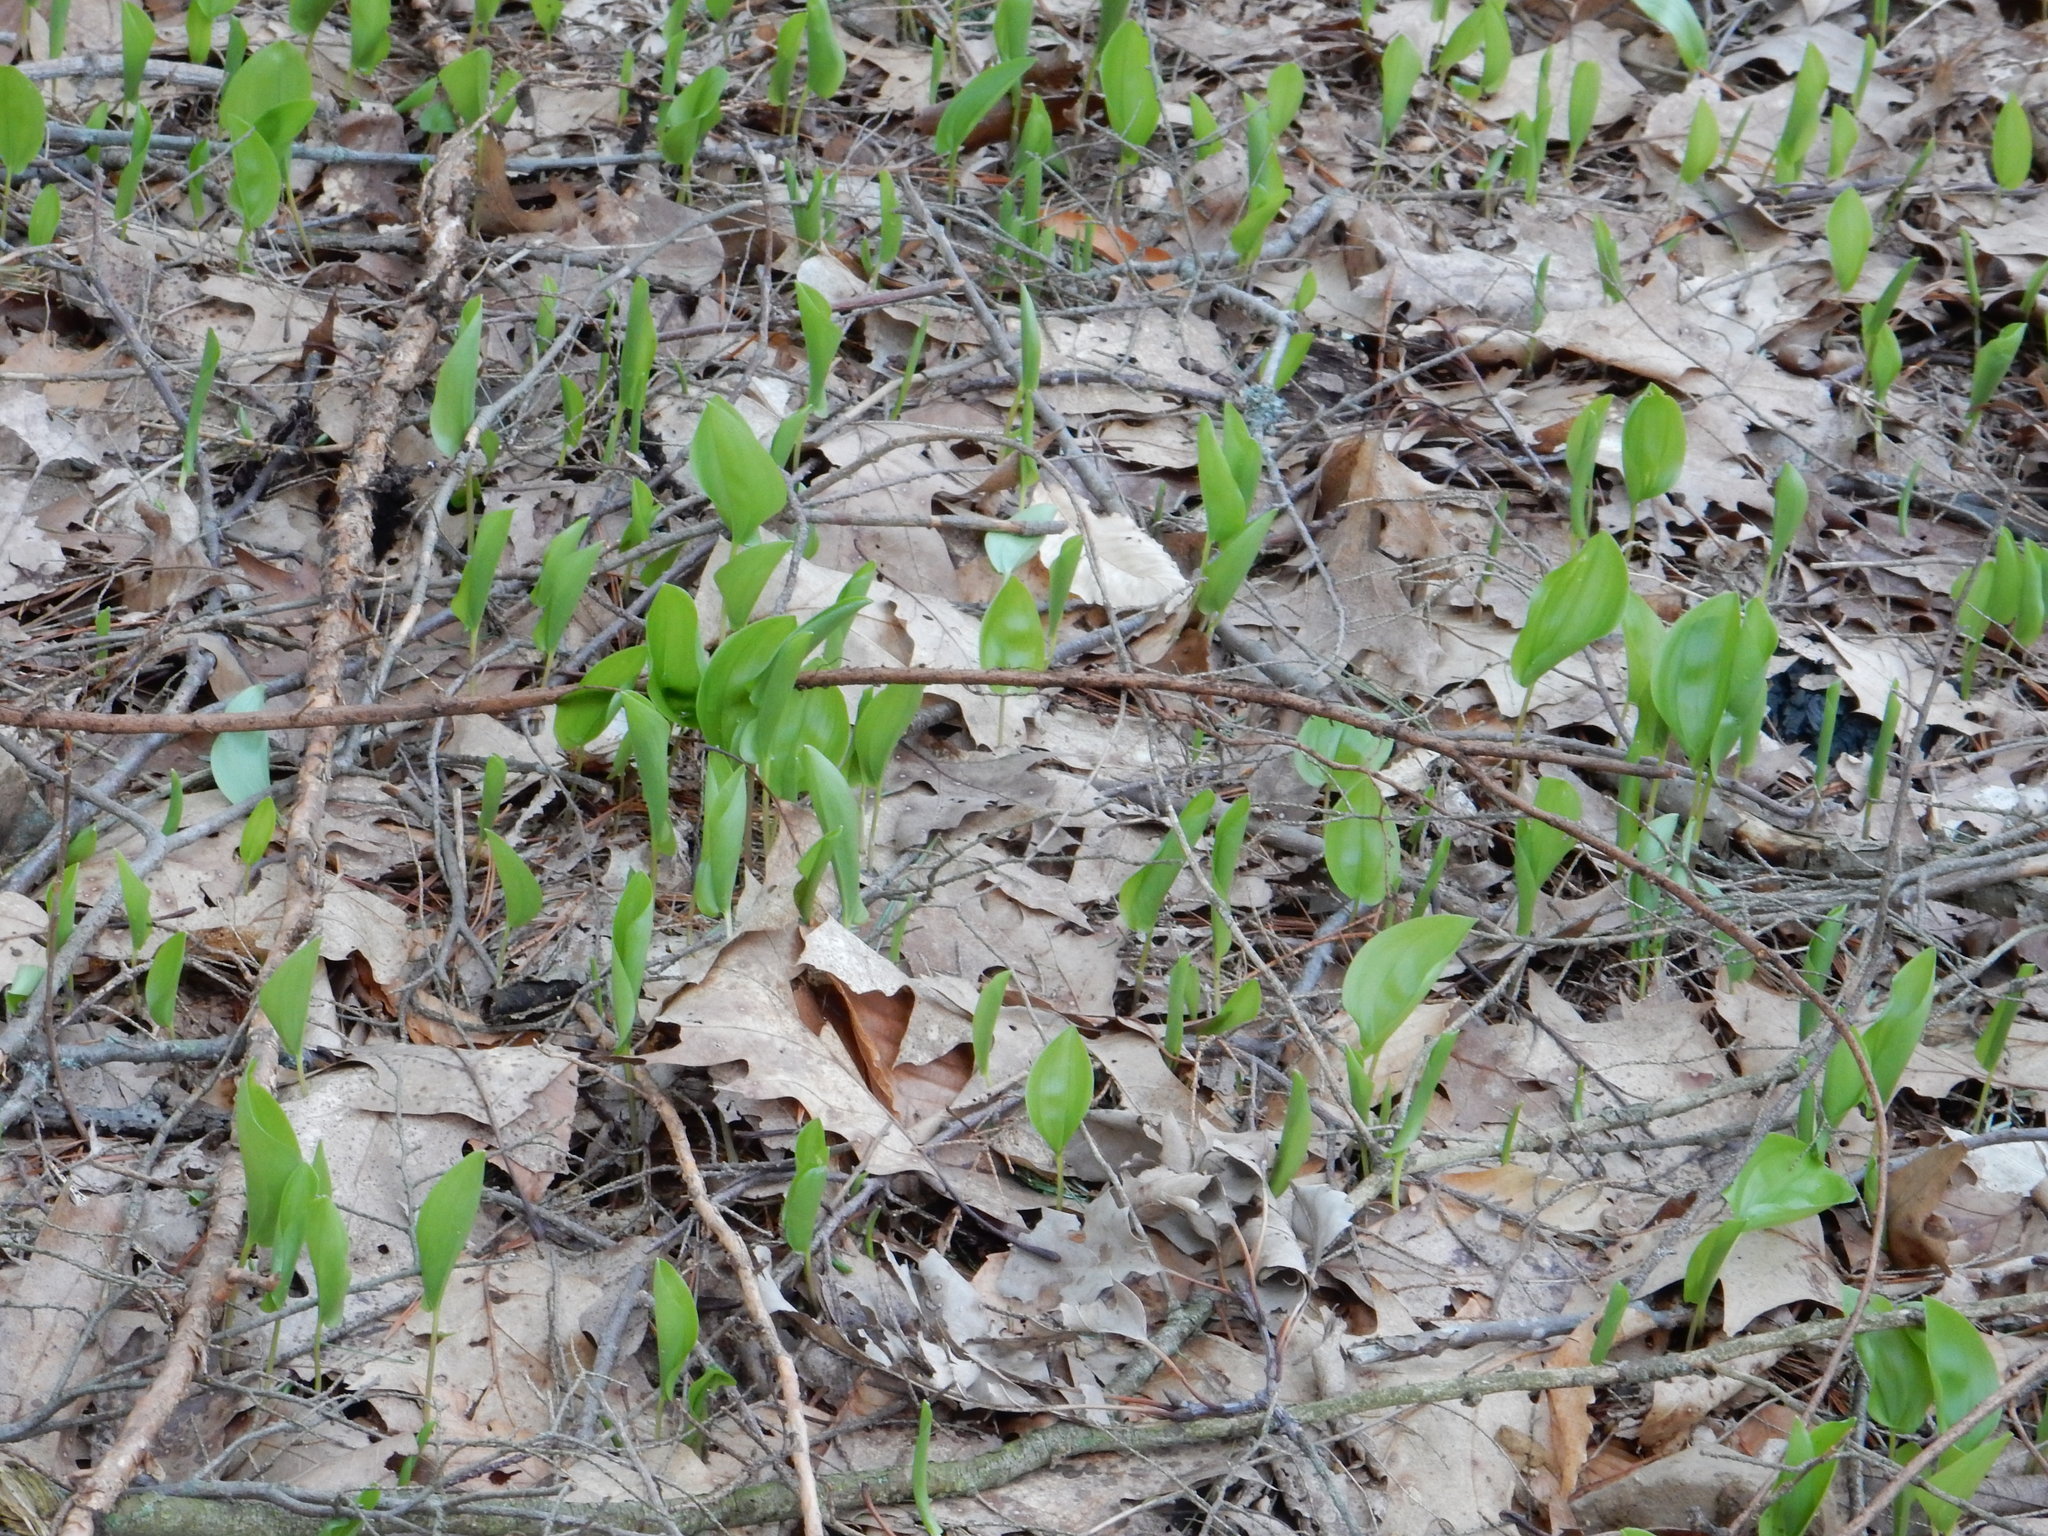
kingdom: Plantae
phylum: Tracheophyta
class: Liliopsida
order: Asparagales
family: Asparagaceae
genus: Maianthemum
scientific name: Maianthemum canadense
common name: False lily-of-the-valley
